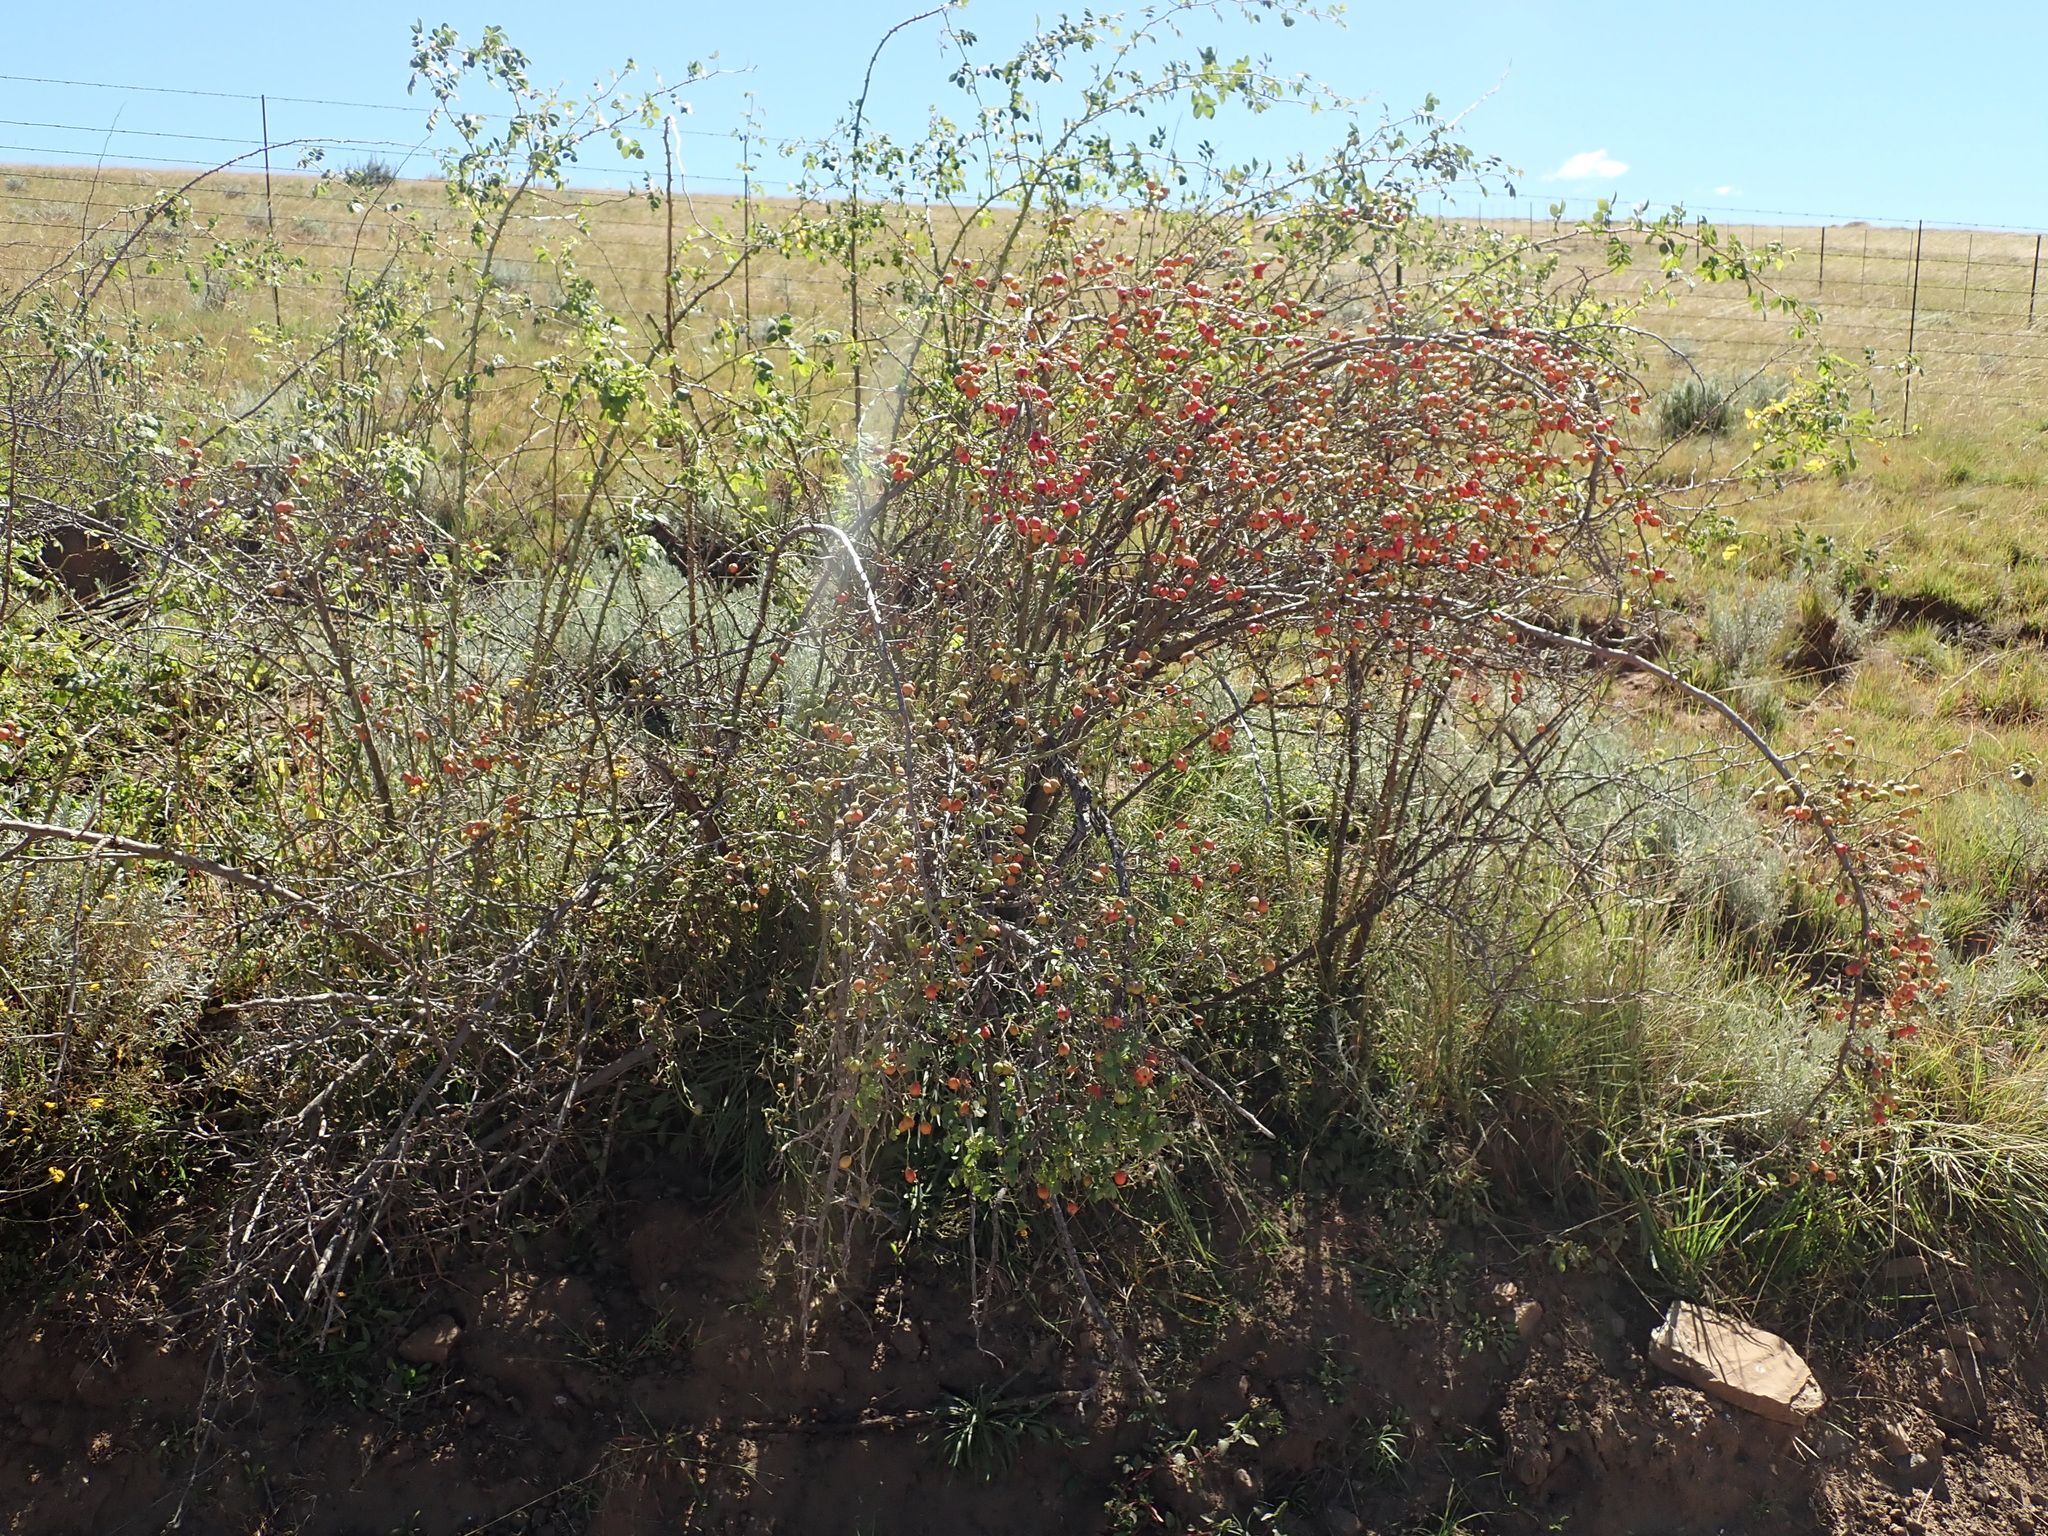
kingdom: Plantae
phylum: Tracheophyta
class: Magnoliopsida
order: Rosales
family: Rosaceae
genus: Rosa
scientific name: Rosa rubiginosa
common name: Sweet-briar
